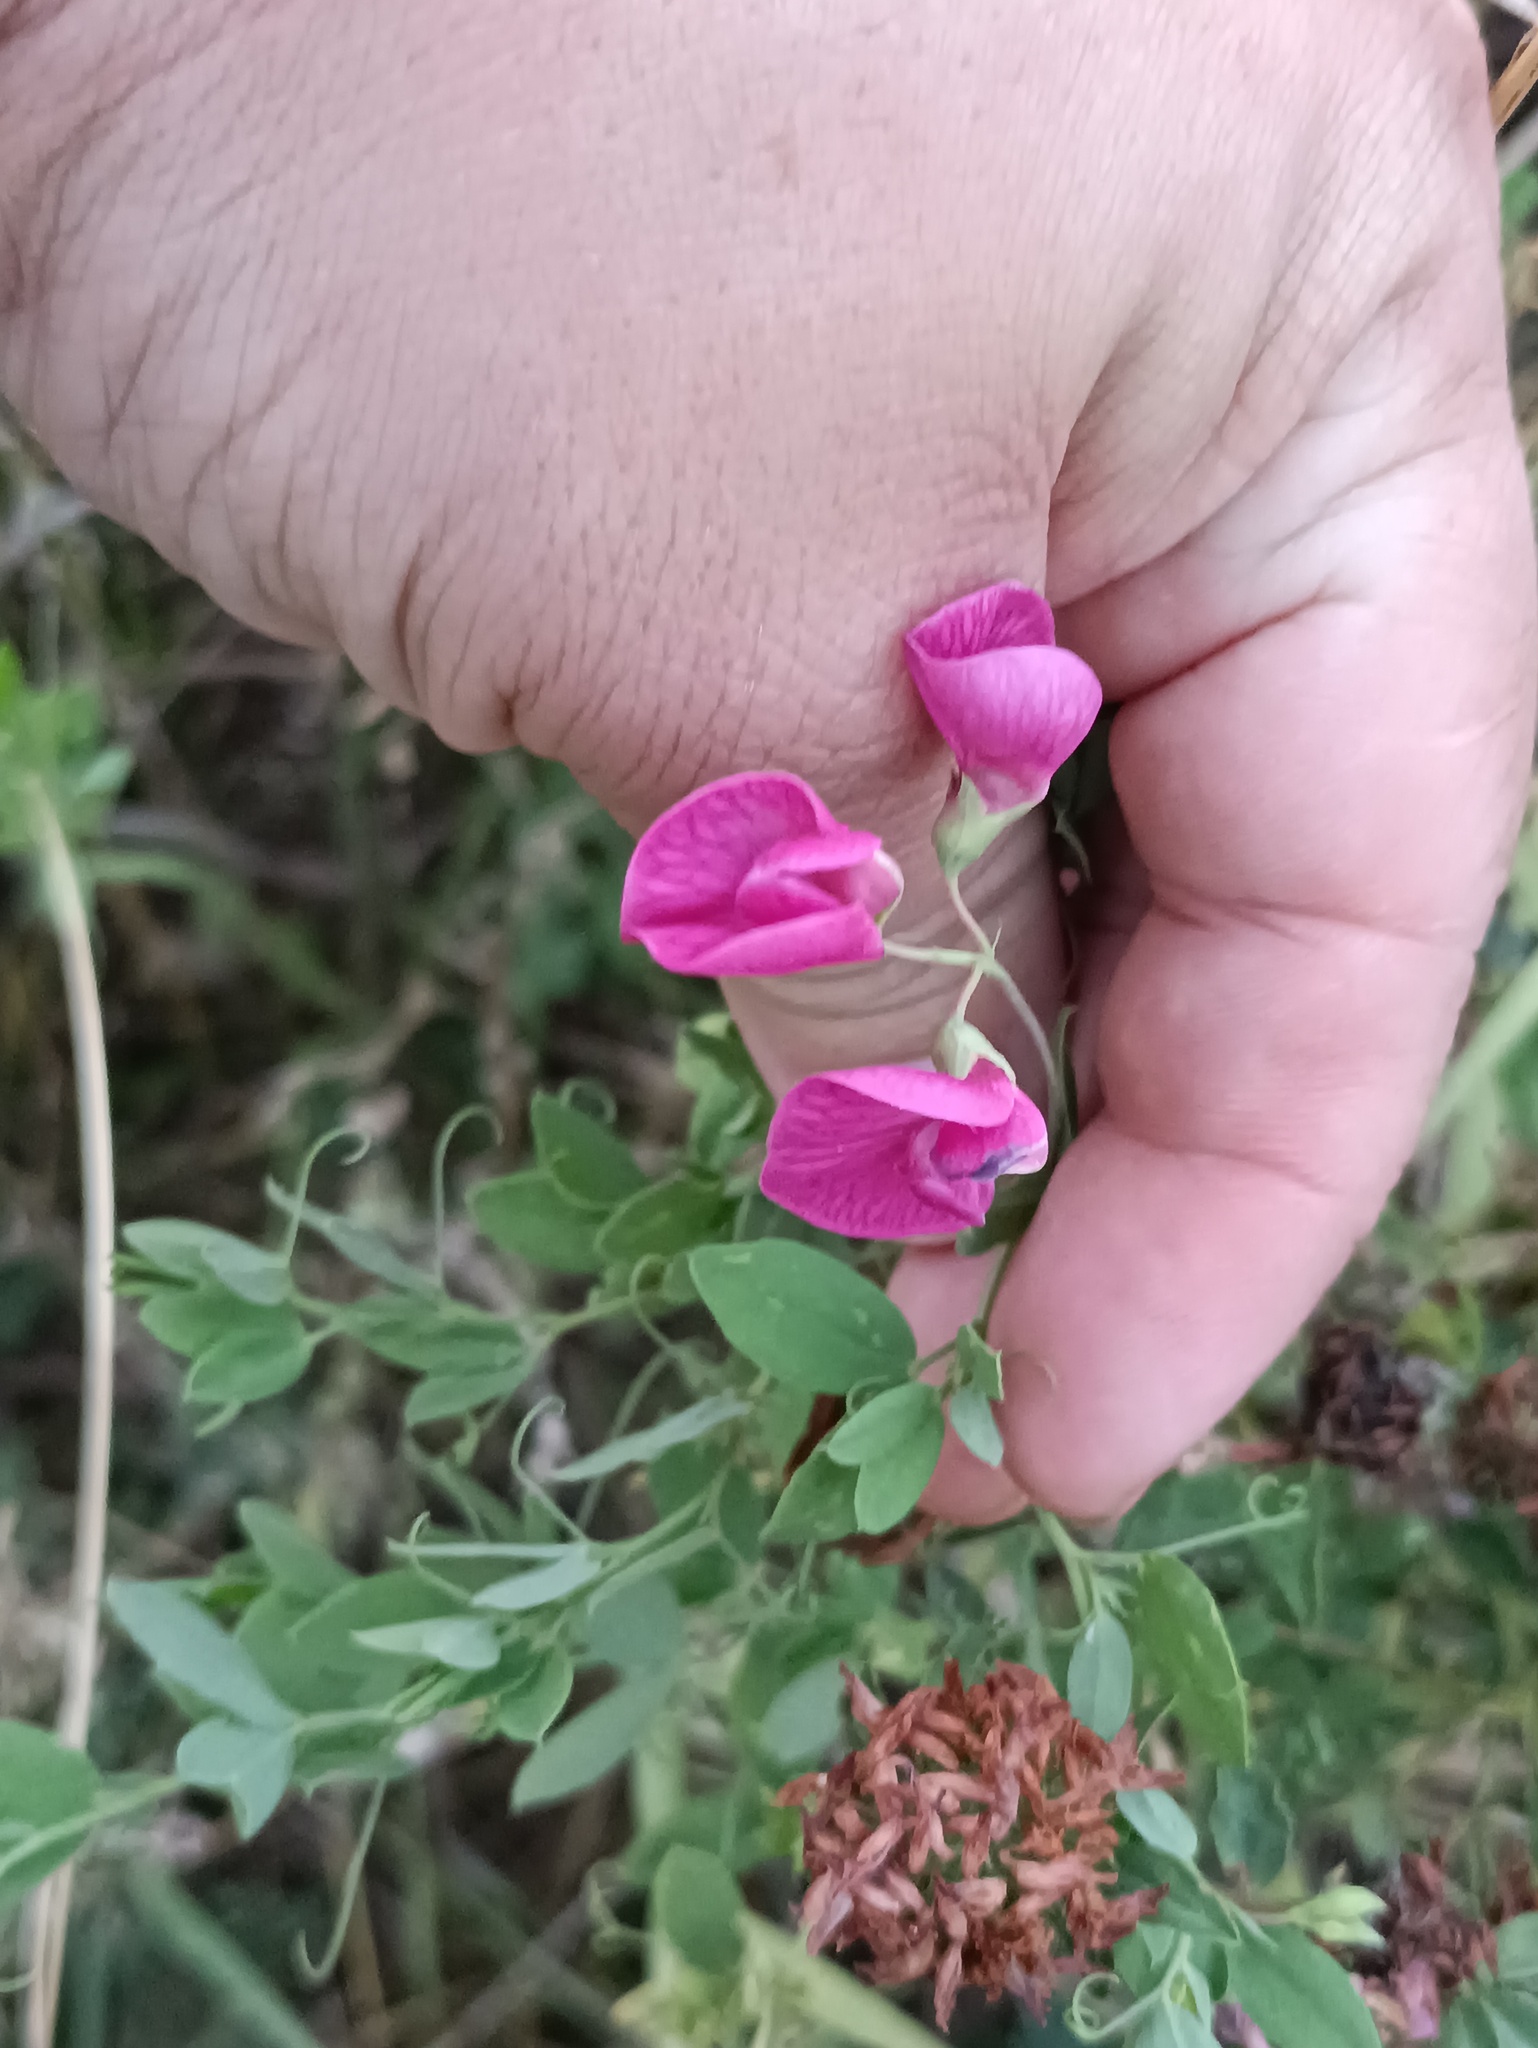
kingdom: Plantae
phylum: Tracheophyta
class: Magnoliopsida
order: Fabales
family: Fabaceae
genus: Lathyrus
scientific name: Lathyrus tuberosus
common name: Tuberous pea
